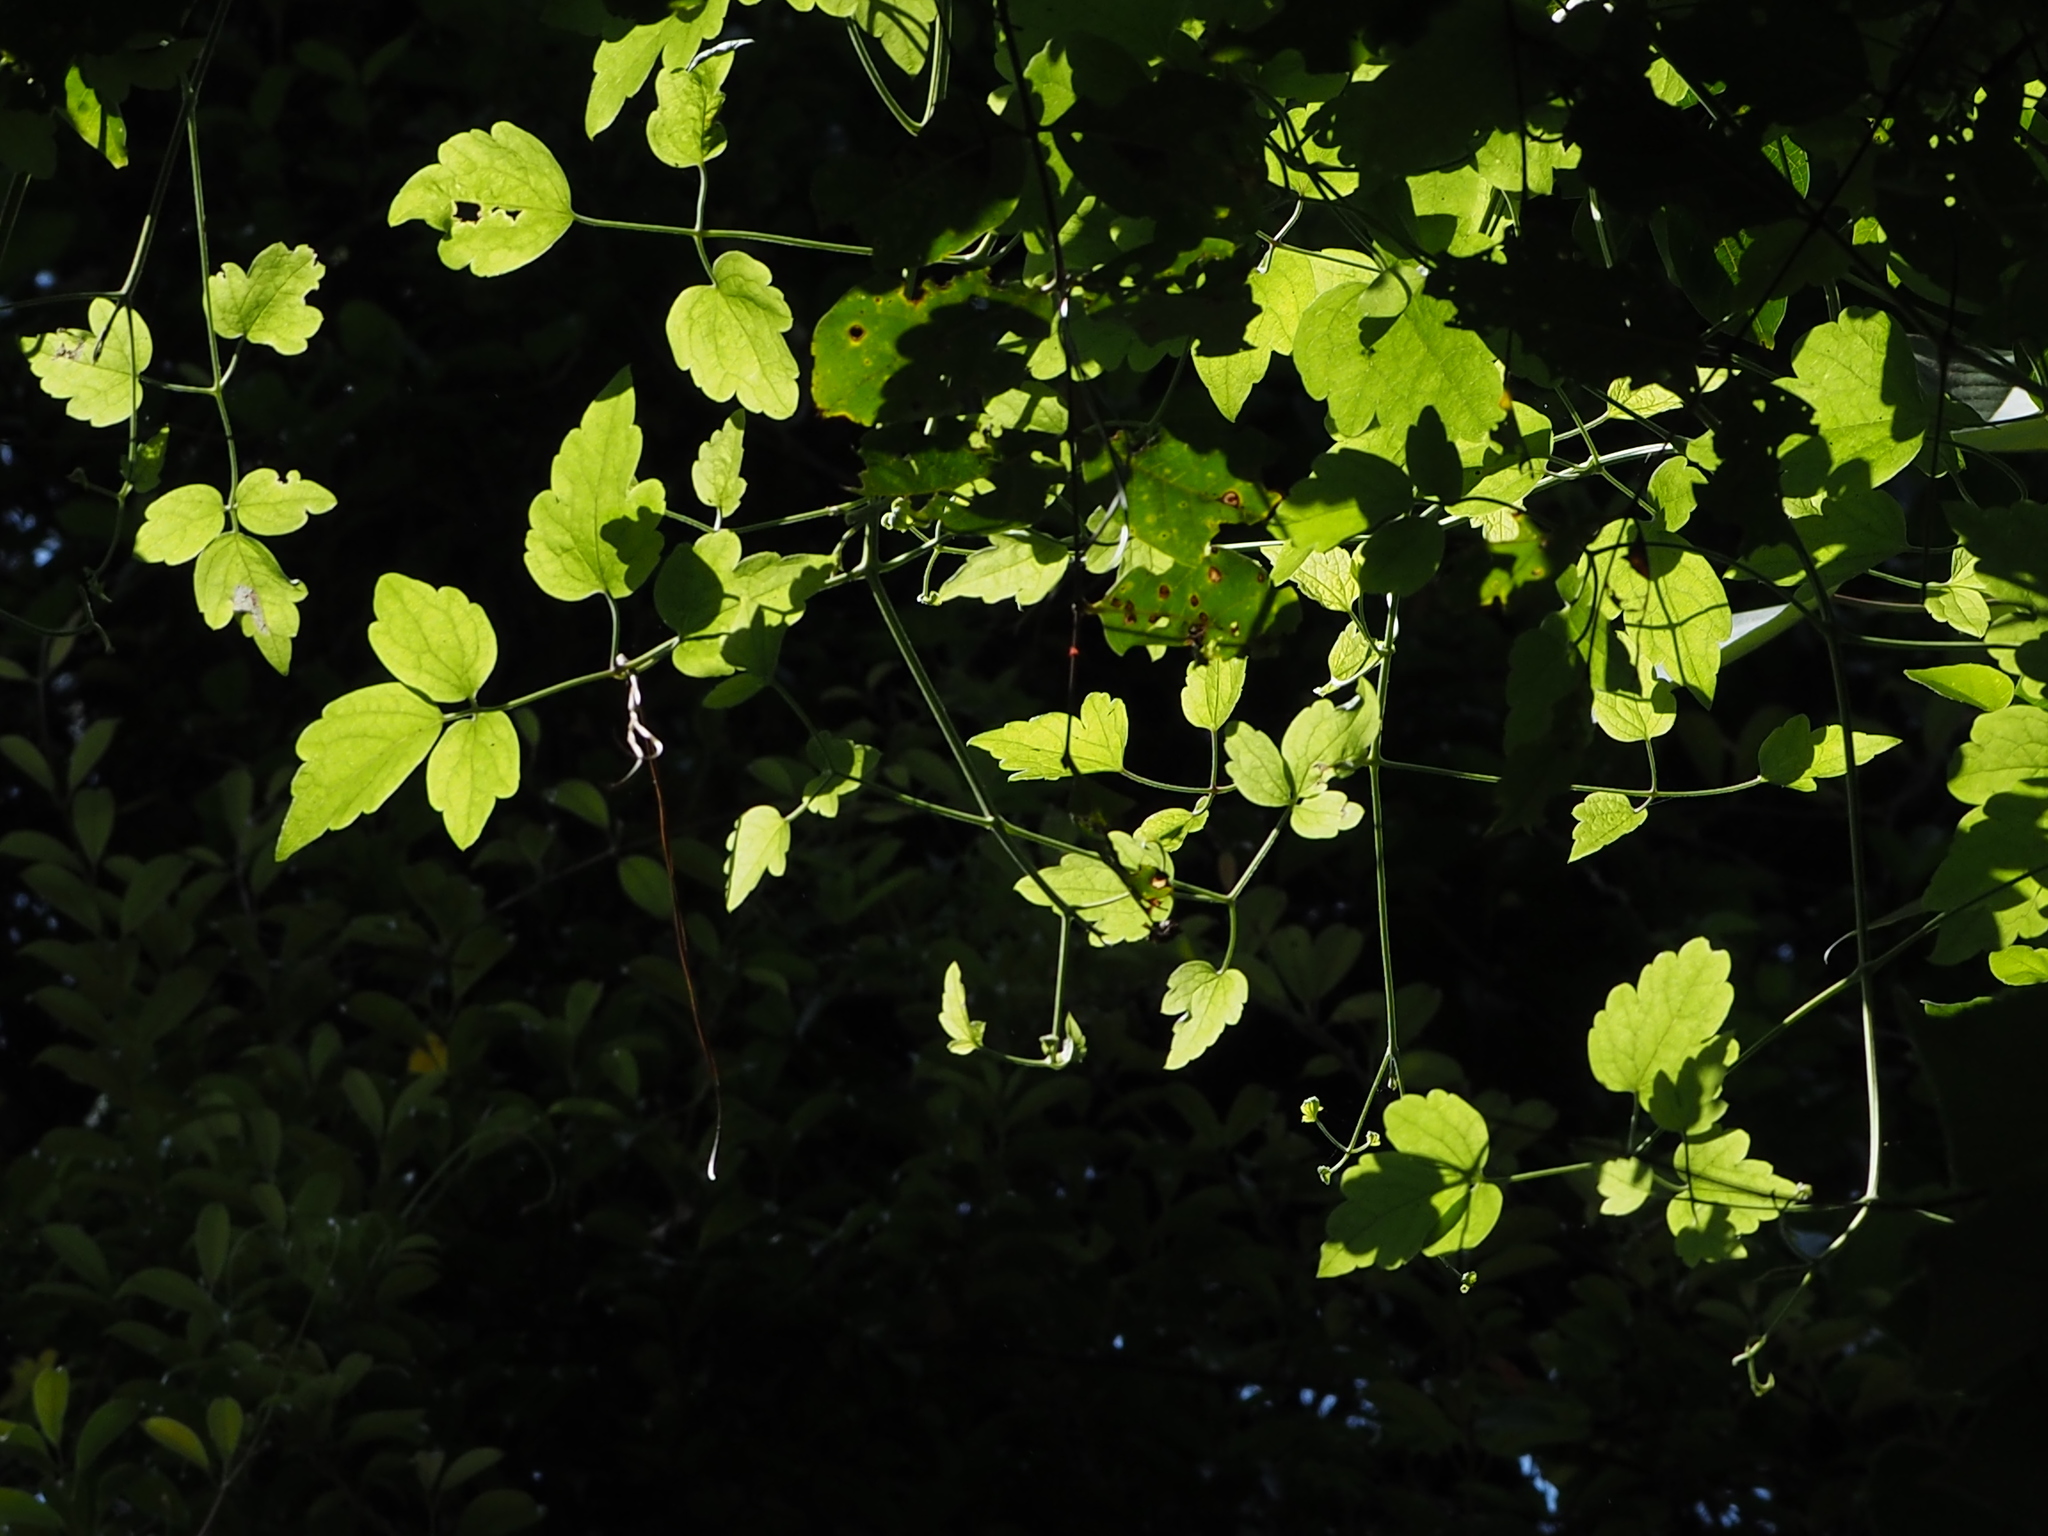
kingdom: Plantae
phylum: Tracheophyta
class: Magnoliopsida
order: Ranunculales
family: Ranunculaceae
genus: Clematis
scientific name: Clematis grata
